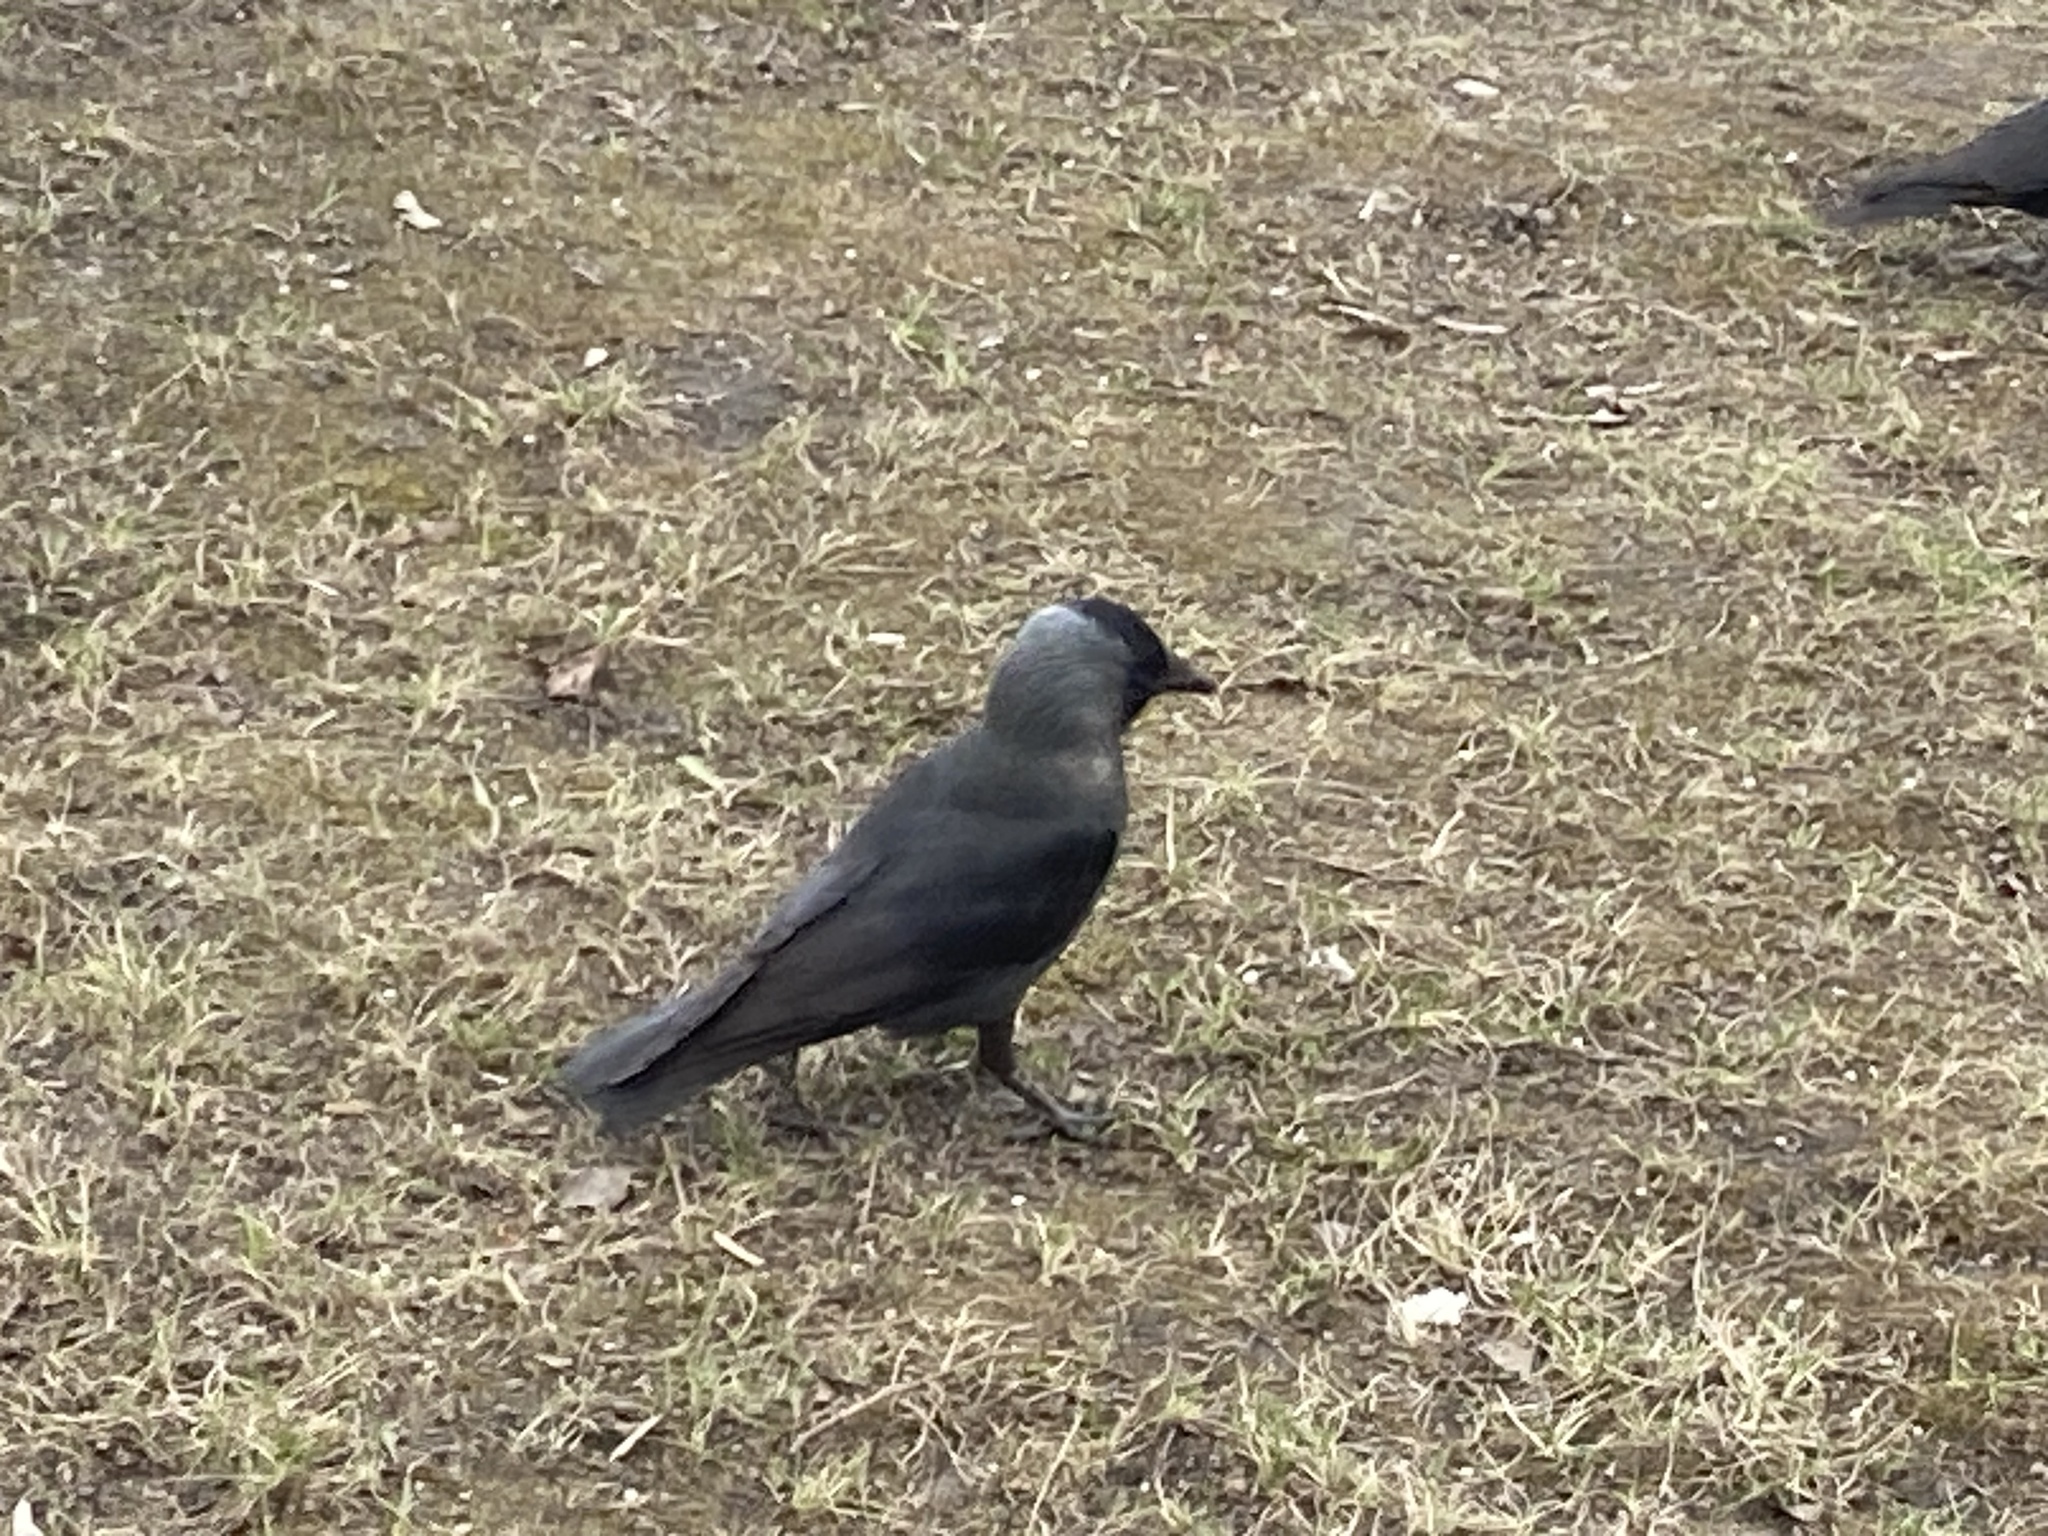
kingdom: Animalia
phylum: Chordata
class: Aves
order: Passeriformes
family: Corvidae
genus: Coloeus
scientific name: Coloeus monedula
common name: Western jackdaw
